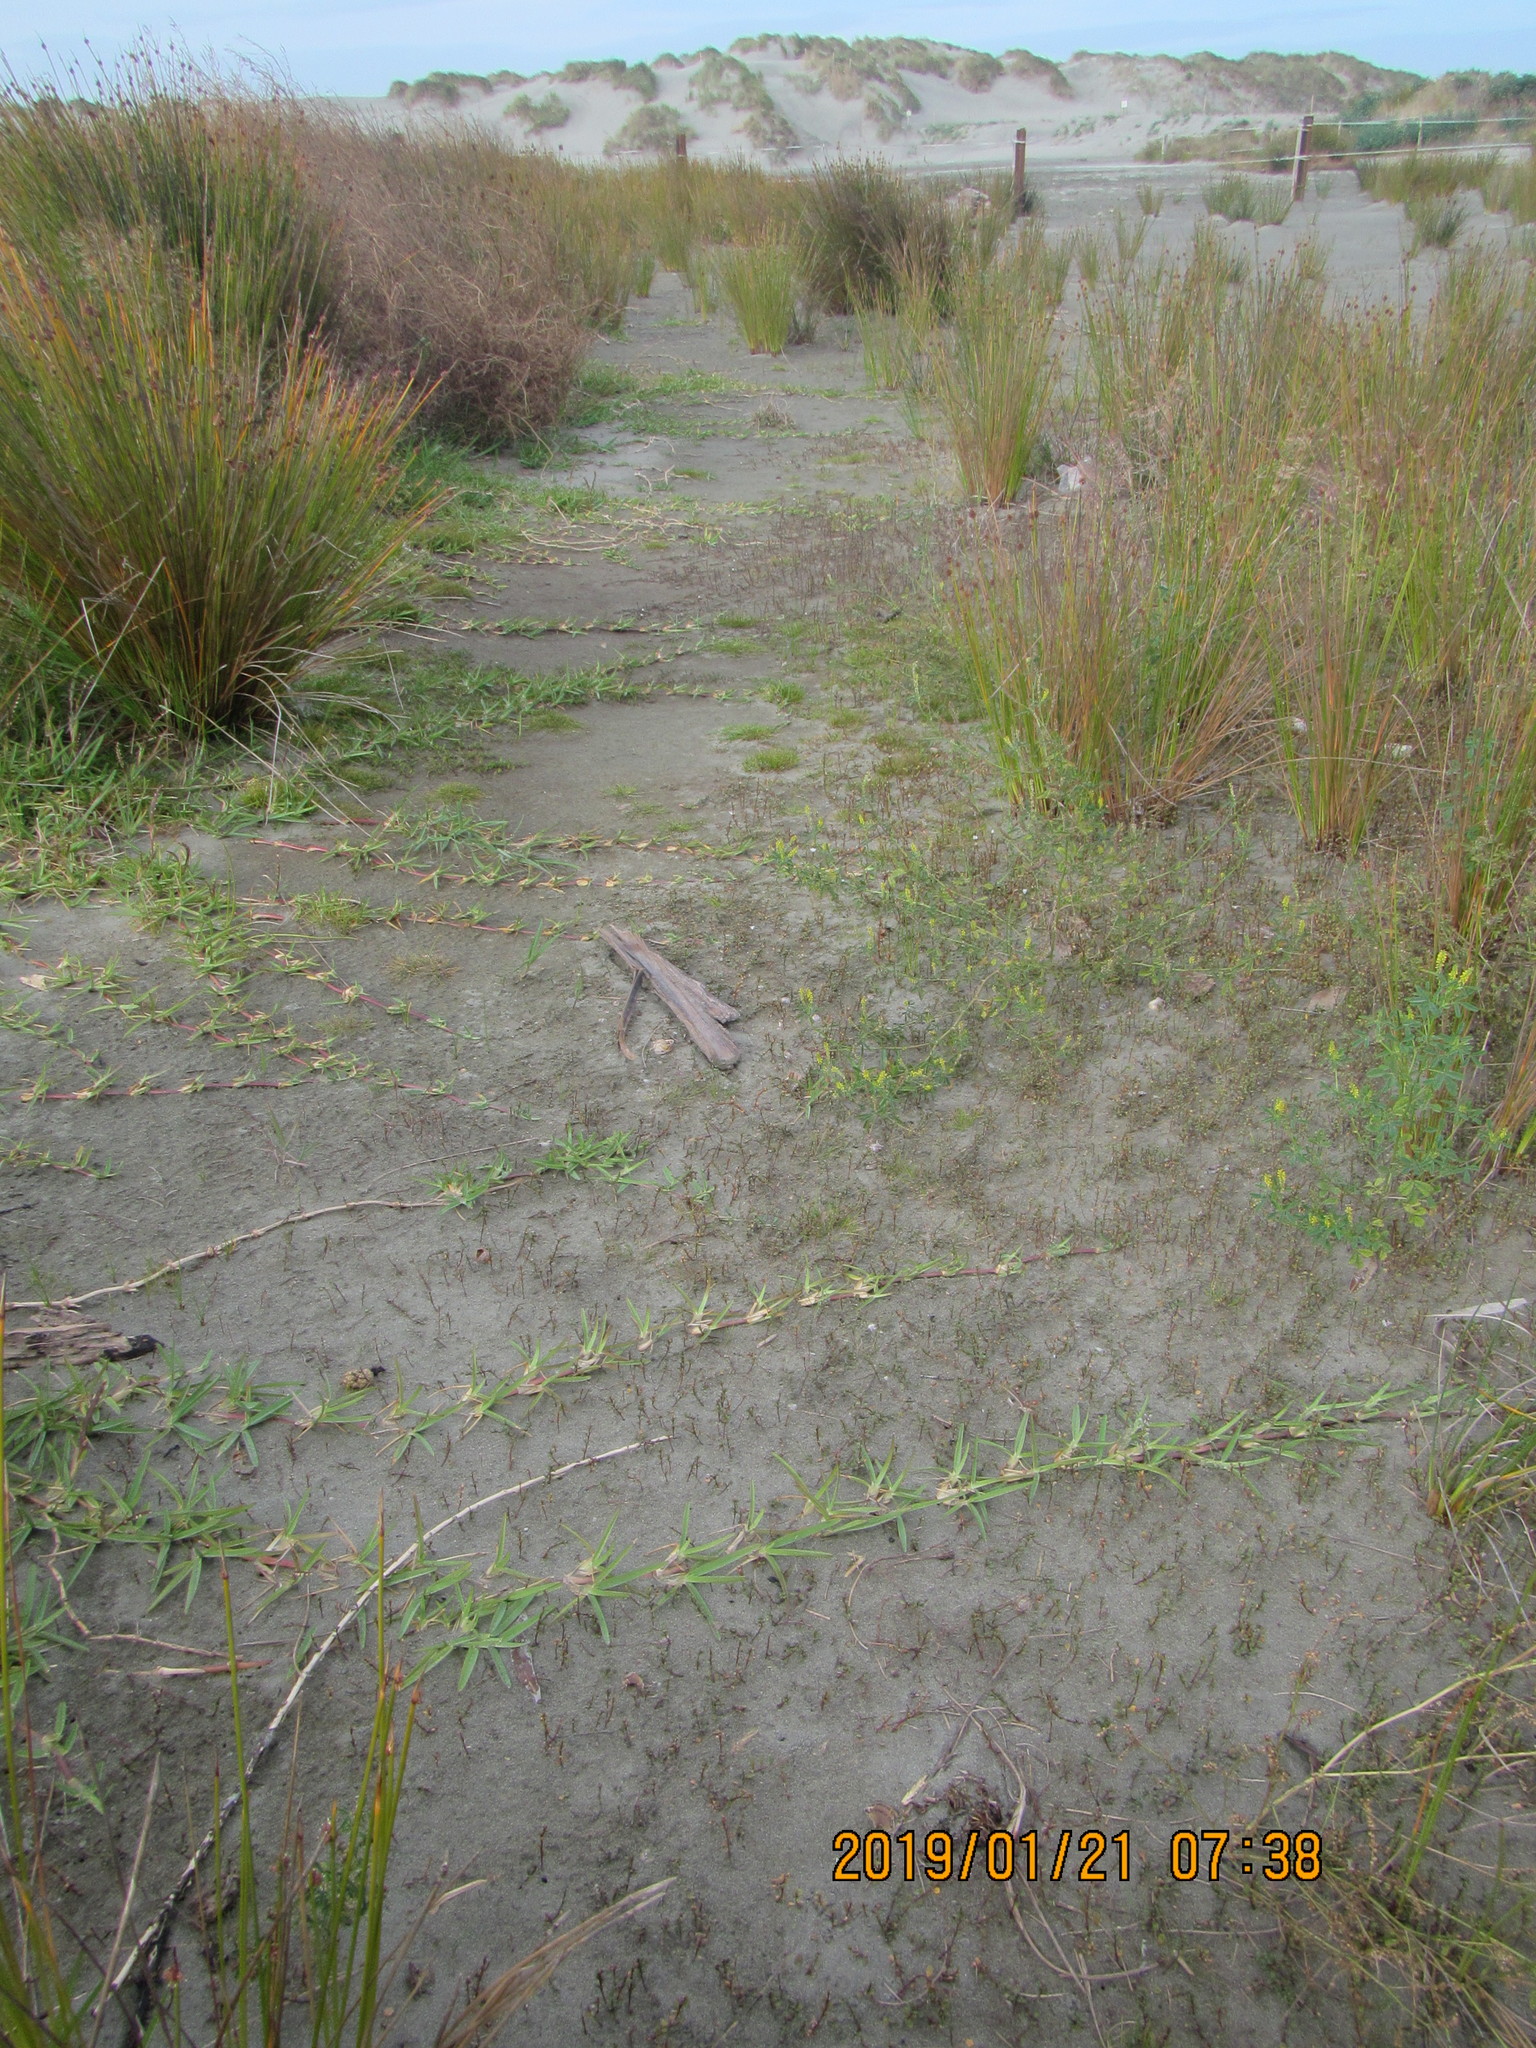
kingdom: Plantae
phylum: Tracheophyta
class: Liliopsida
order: Poales
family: Poaceae
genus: Stenotaphrum
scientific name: Stenotaphrum secundatum
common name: St. augustine grass
